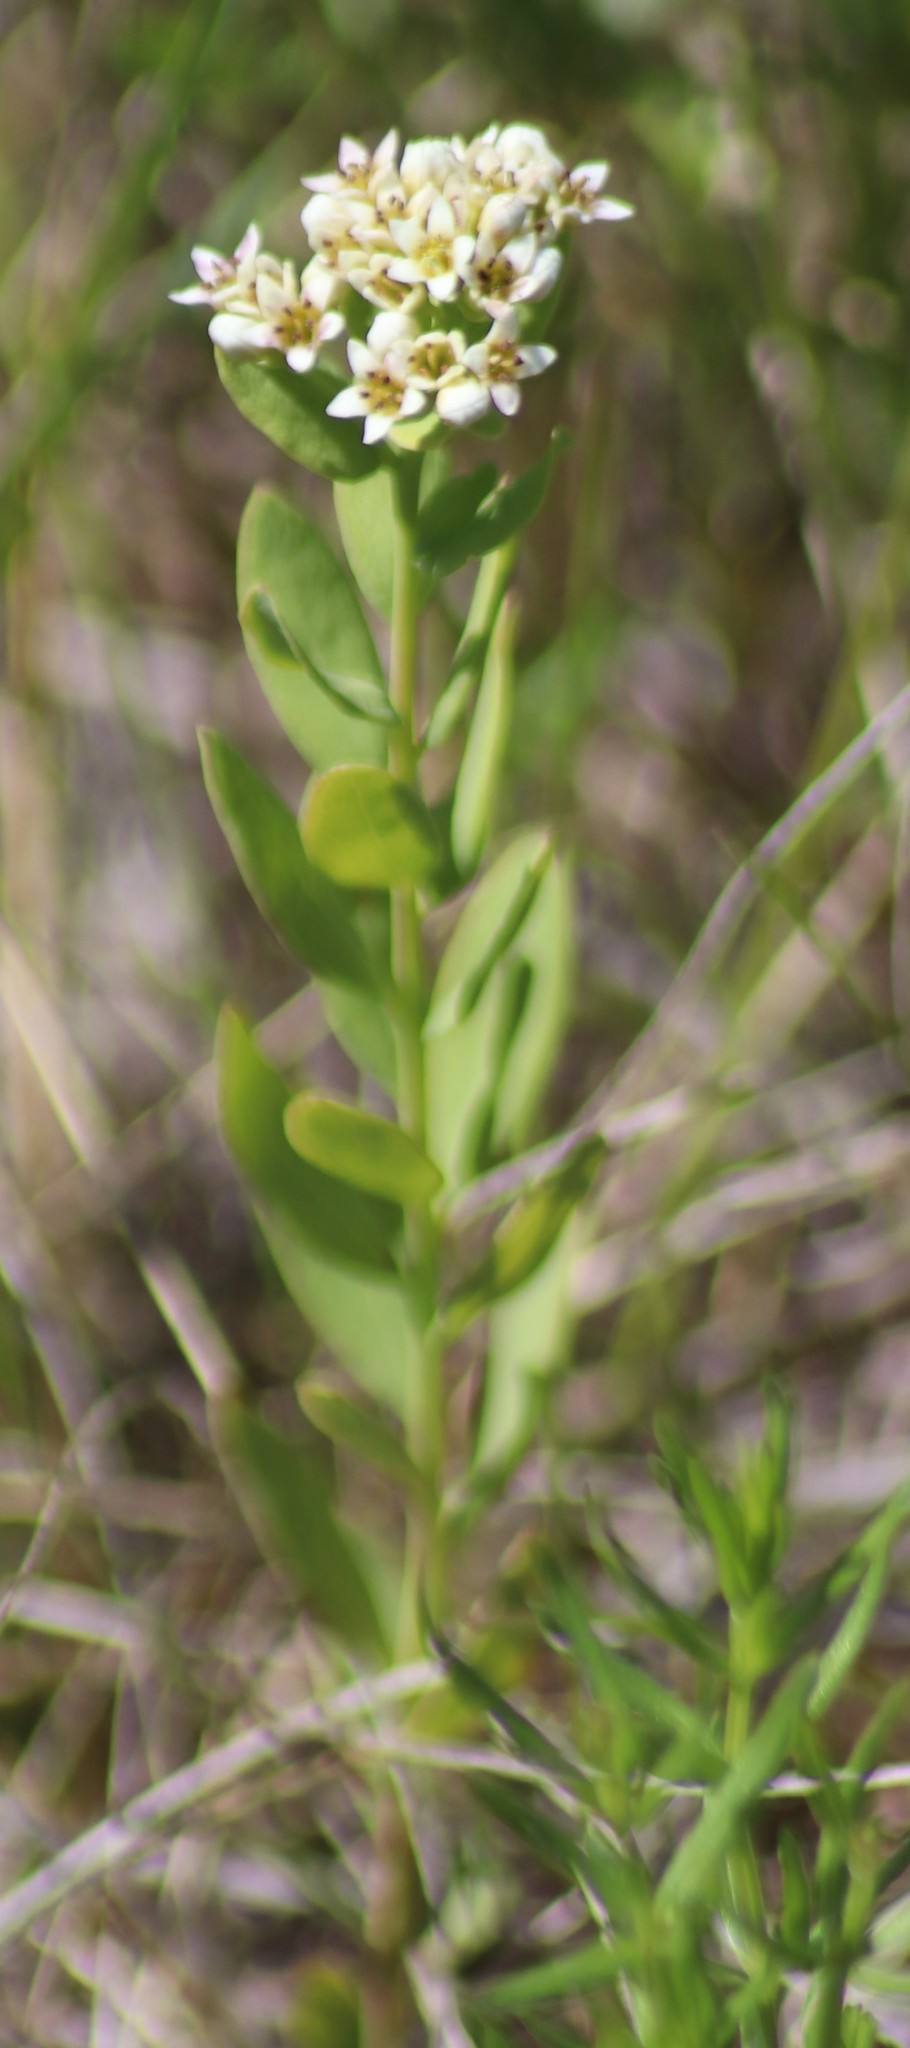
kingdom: Plantae
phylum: Tracheophyta
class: Magnoliopsida
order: Santalales
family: Comandraceae
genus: Comandra
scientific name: Comandra umbellata
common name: Bastard toadflax
